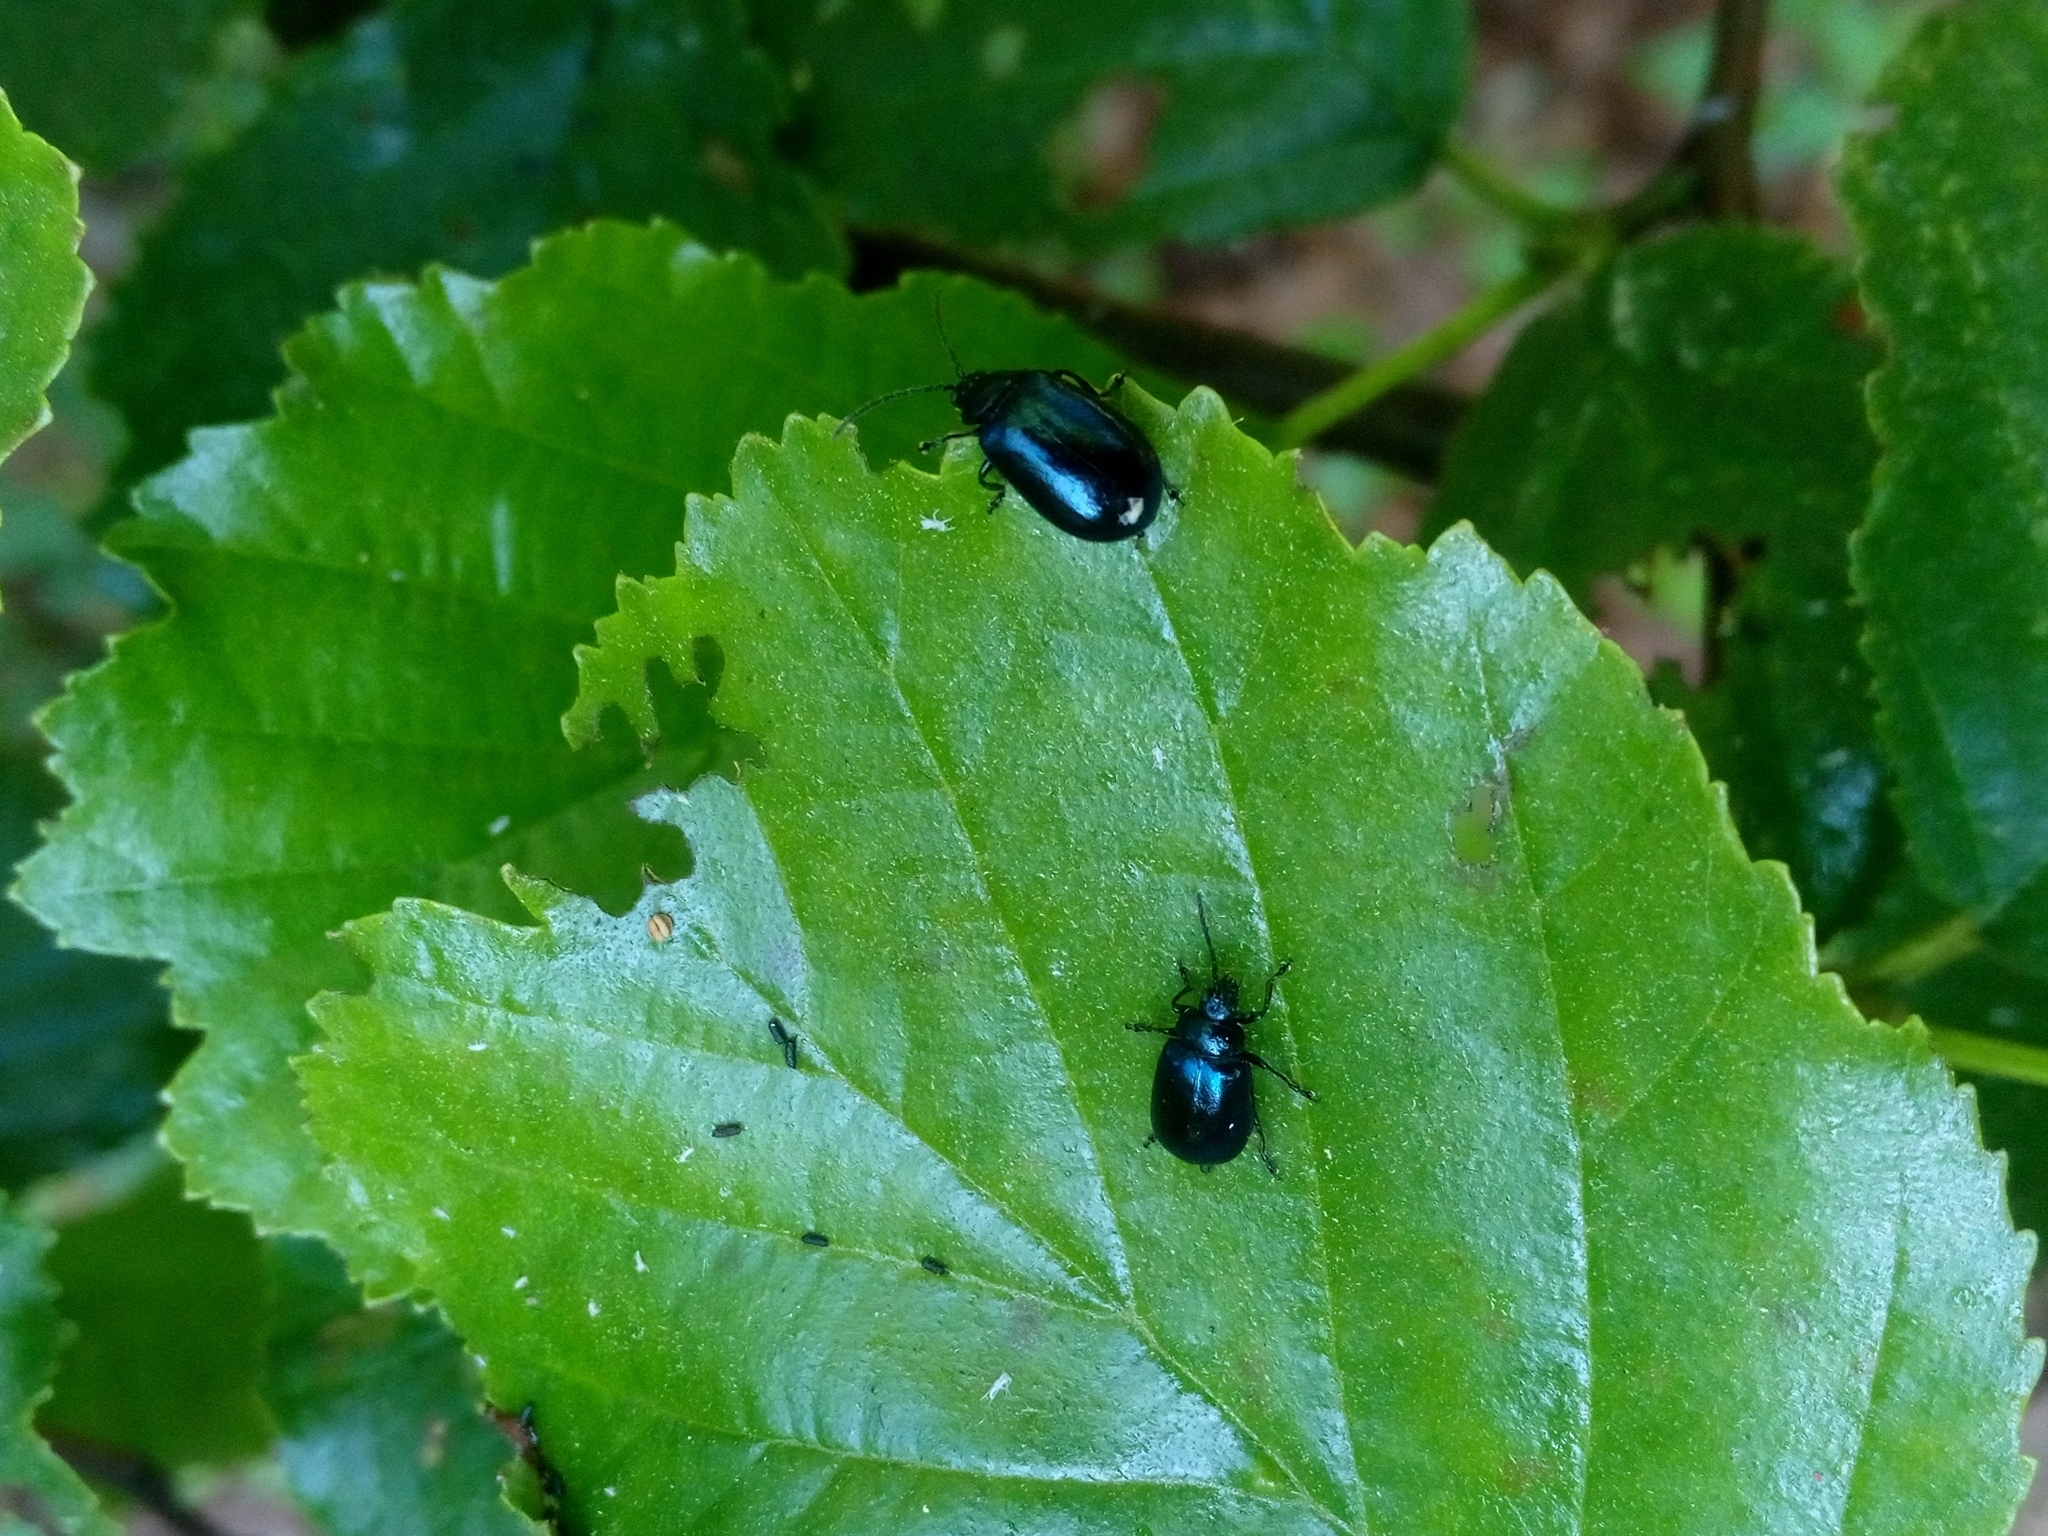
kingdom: Animalia
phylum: Arthropoda
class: Insecta
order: Coleoptera
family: Chrysomelidae
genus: Agelastica
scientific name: Agelastica alni
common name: Alder leaf beetle
